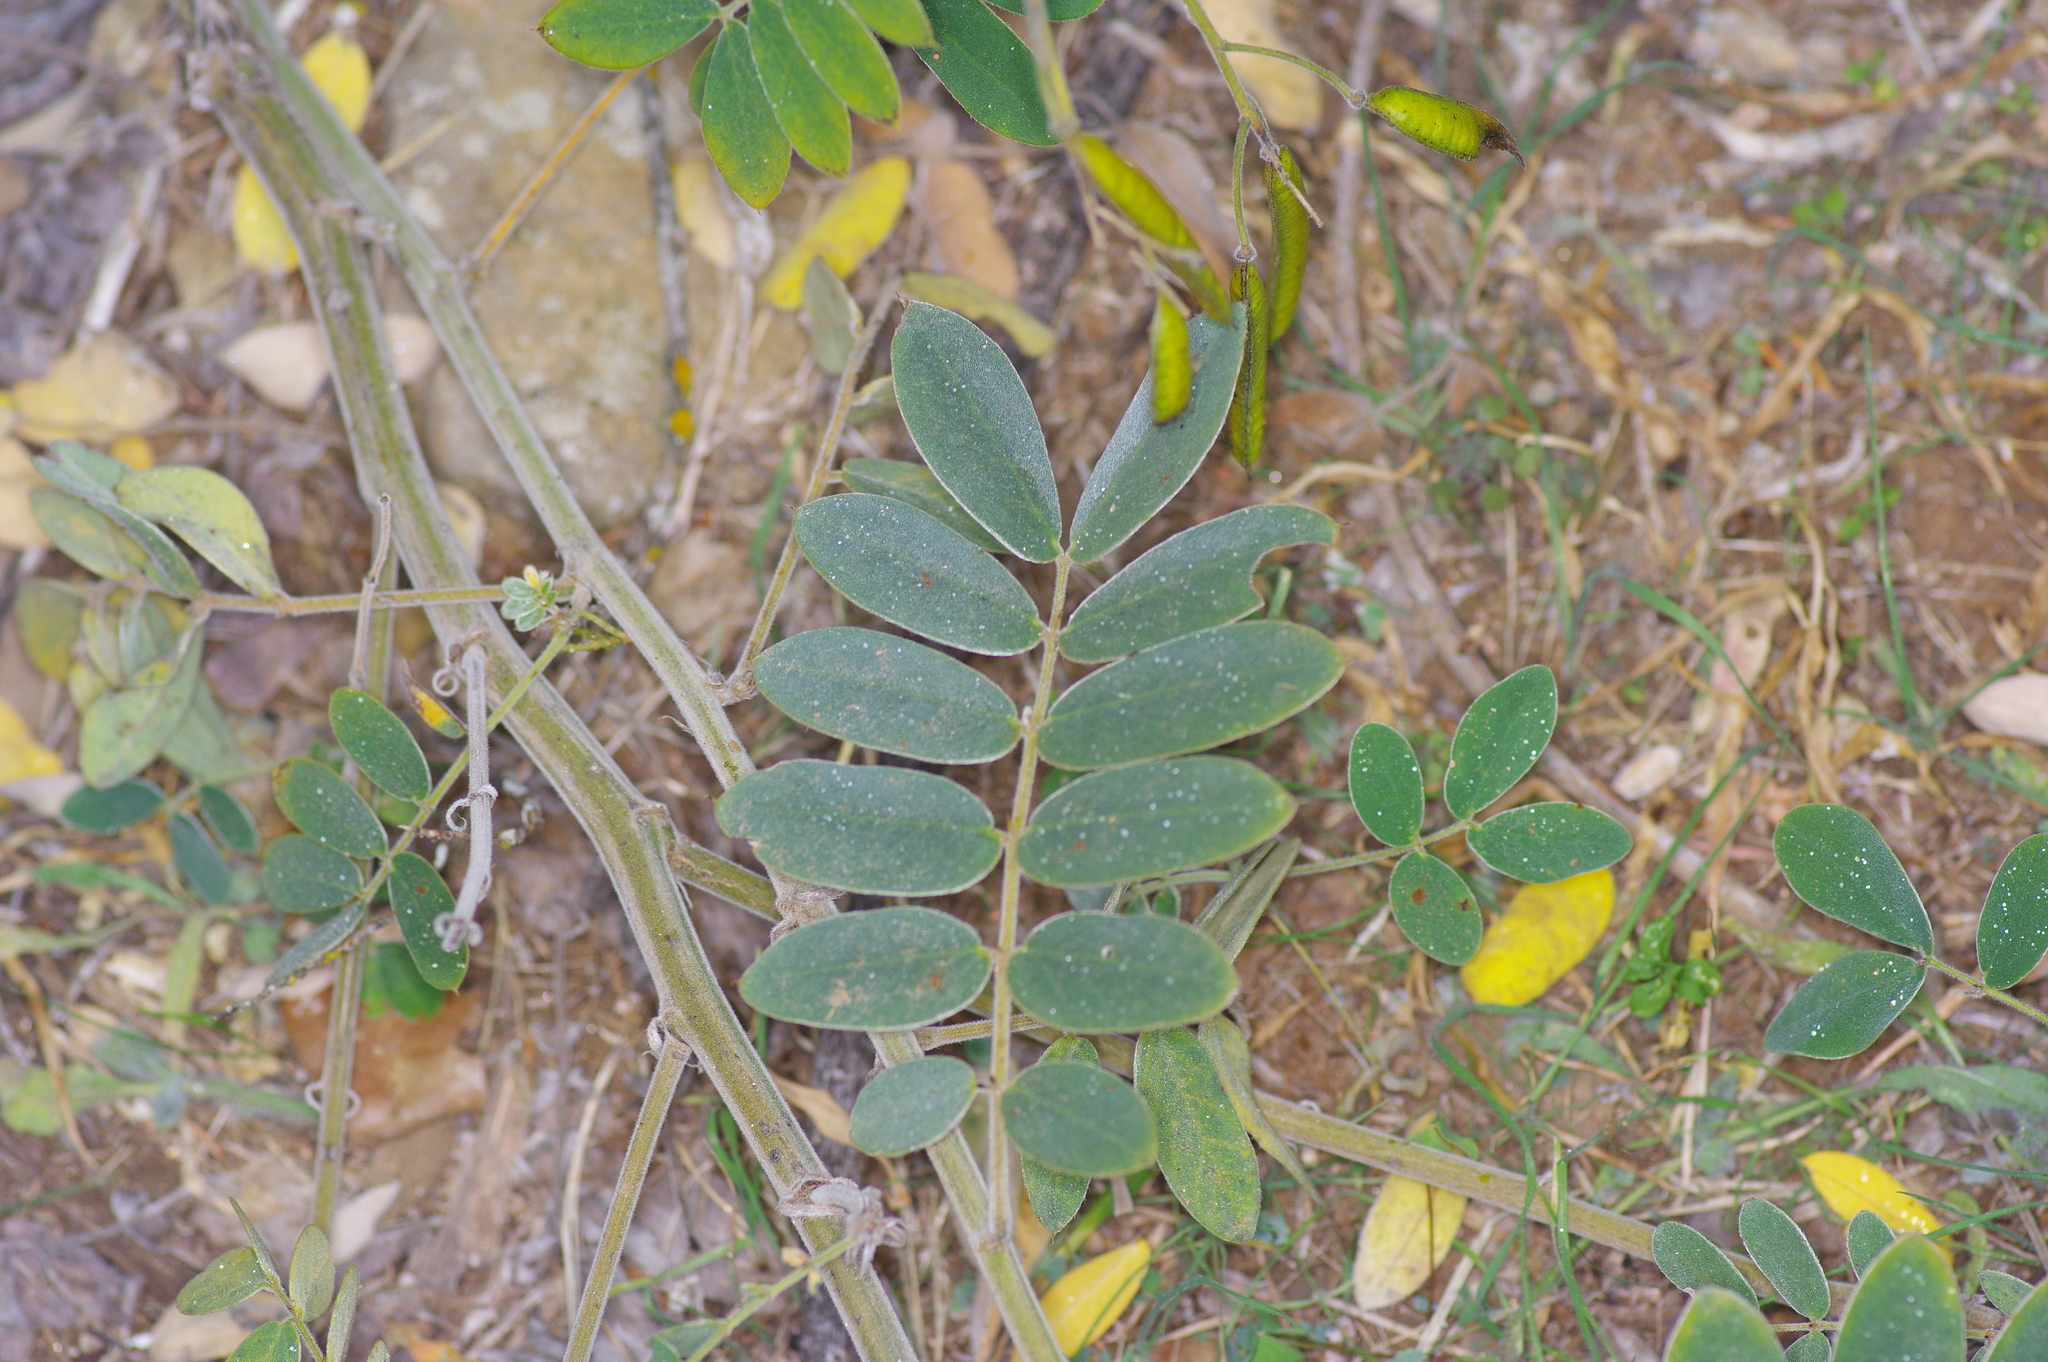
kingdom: Plantae
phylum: Tracheophyta
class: Magnoliopsida
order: Fabales
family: Fabaceae
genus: Senna
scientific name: Senna lindheimeriana
